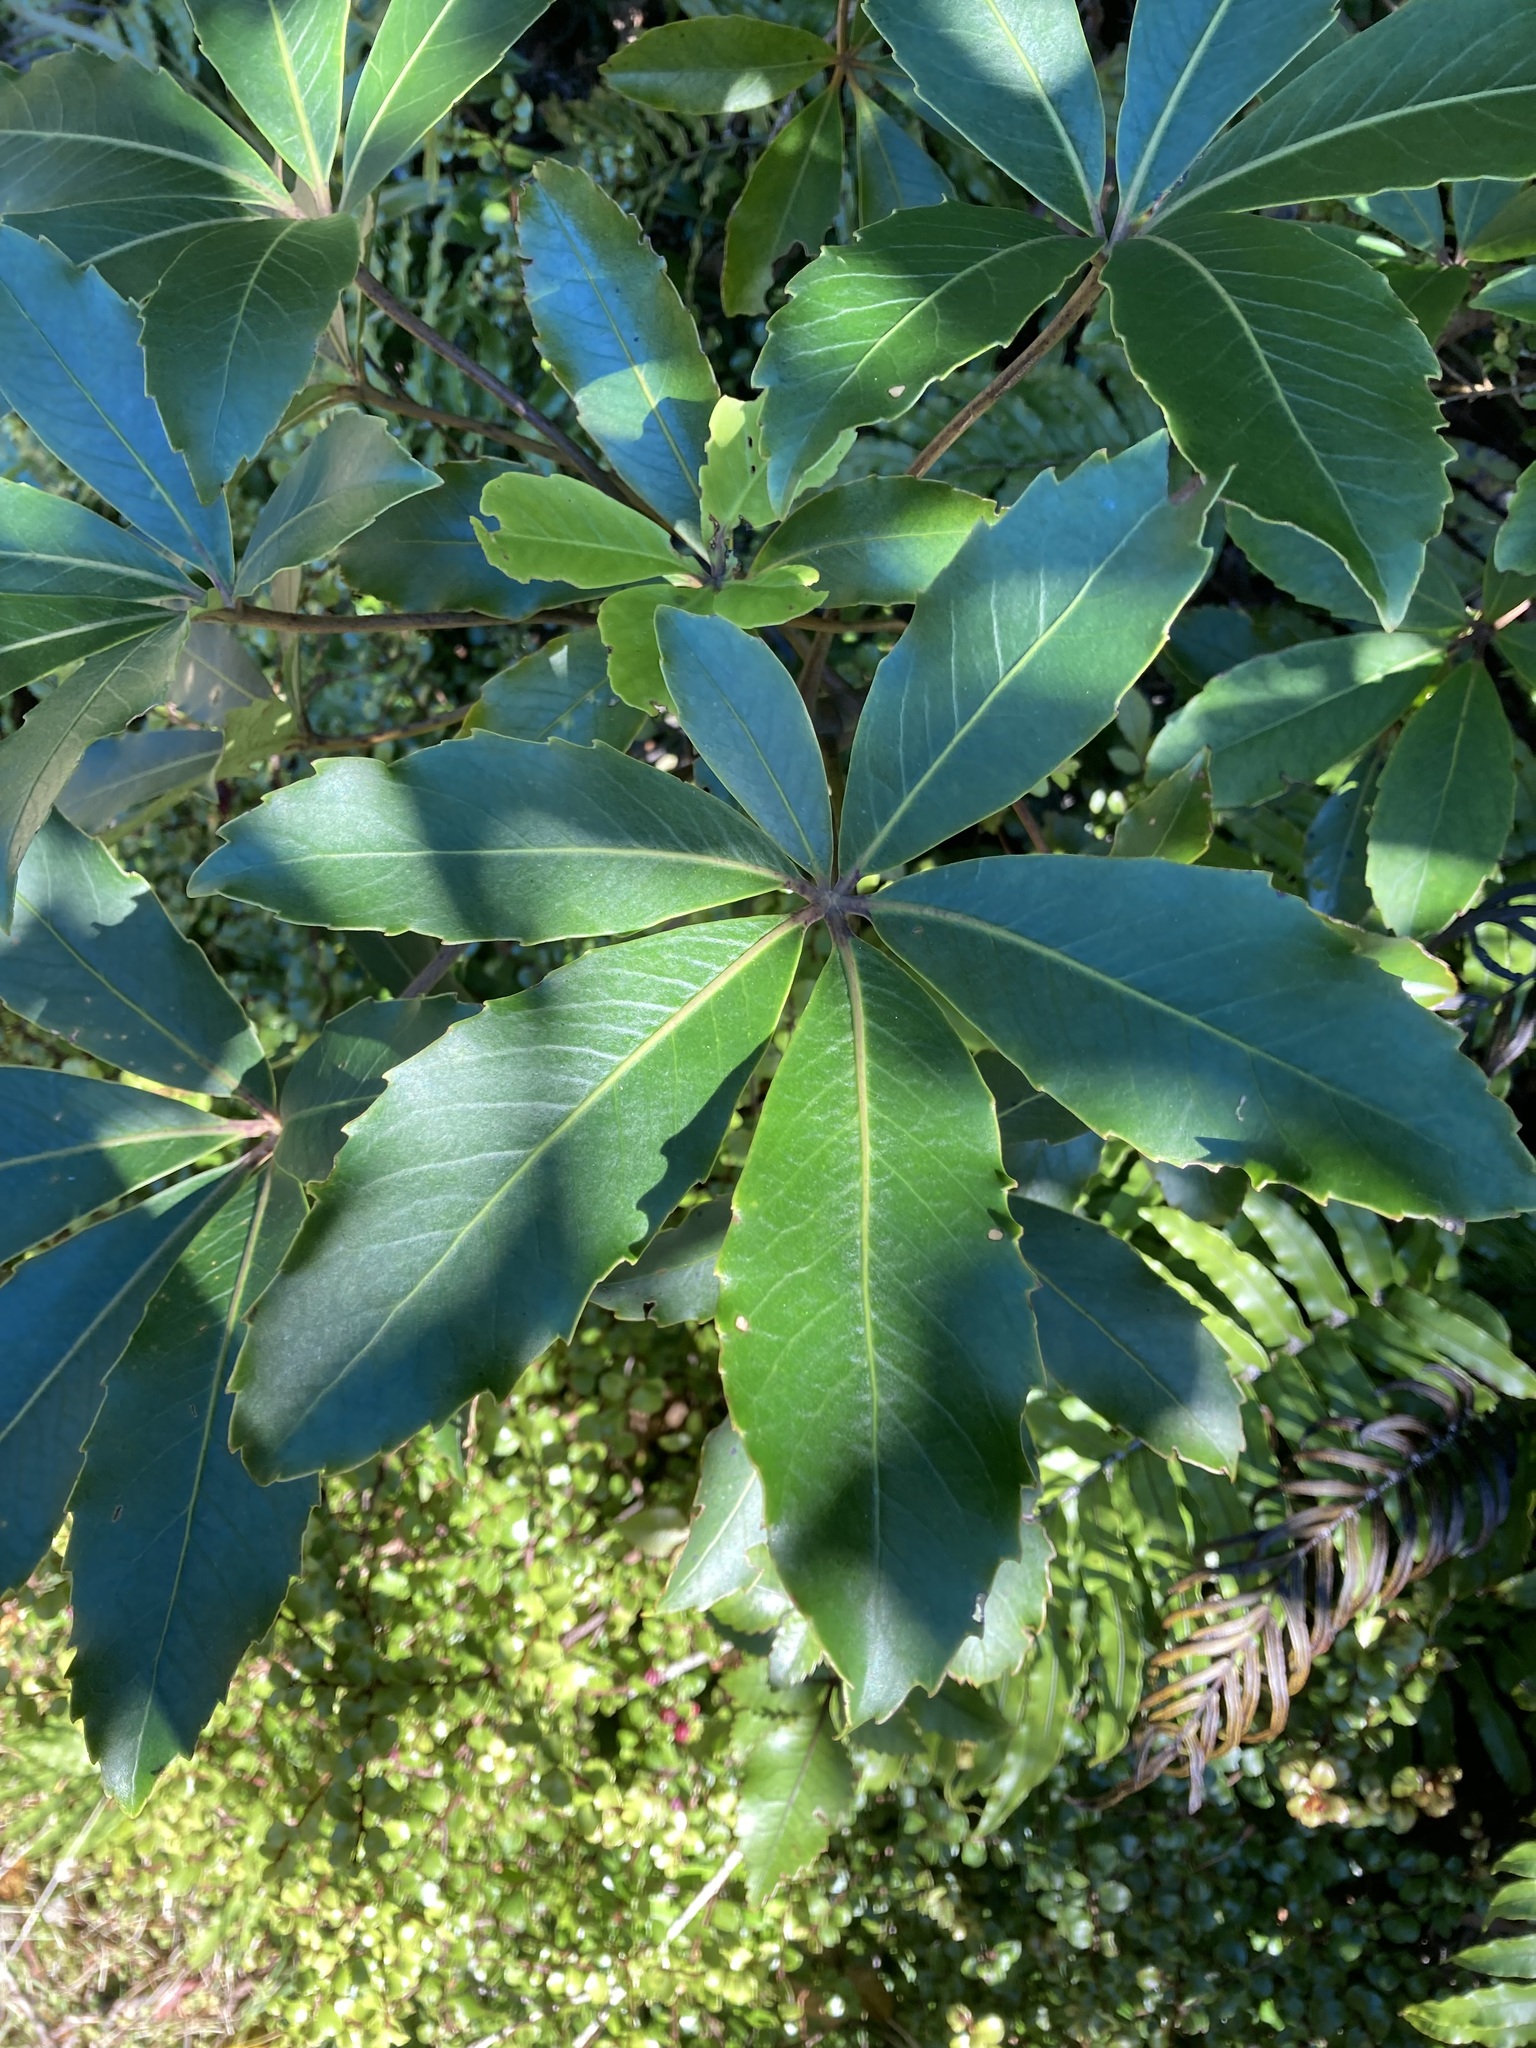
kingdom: Plantae
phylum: Tracheophyta
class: Magnoliopsida
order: Apiales
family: Araliaceae
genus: Neopanax
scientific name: Neopanax colensoi
